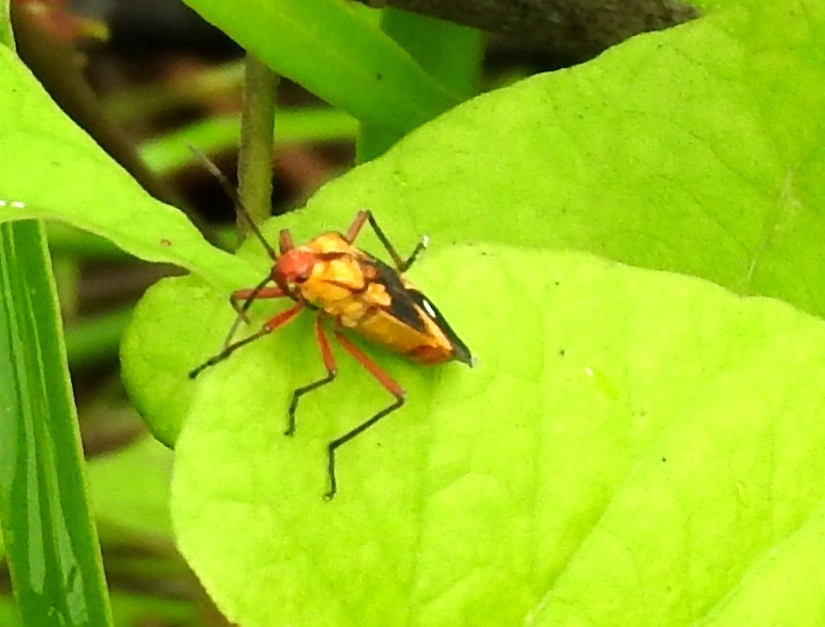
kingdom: Animalia
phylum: Arthropoda
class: Insecta
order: Hemiptera
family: Lygaeidae
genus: Oncopeltus
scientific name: Oncopeltus guttaloides
